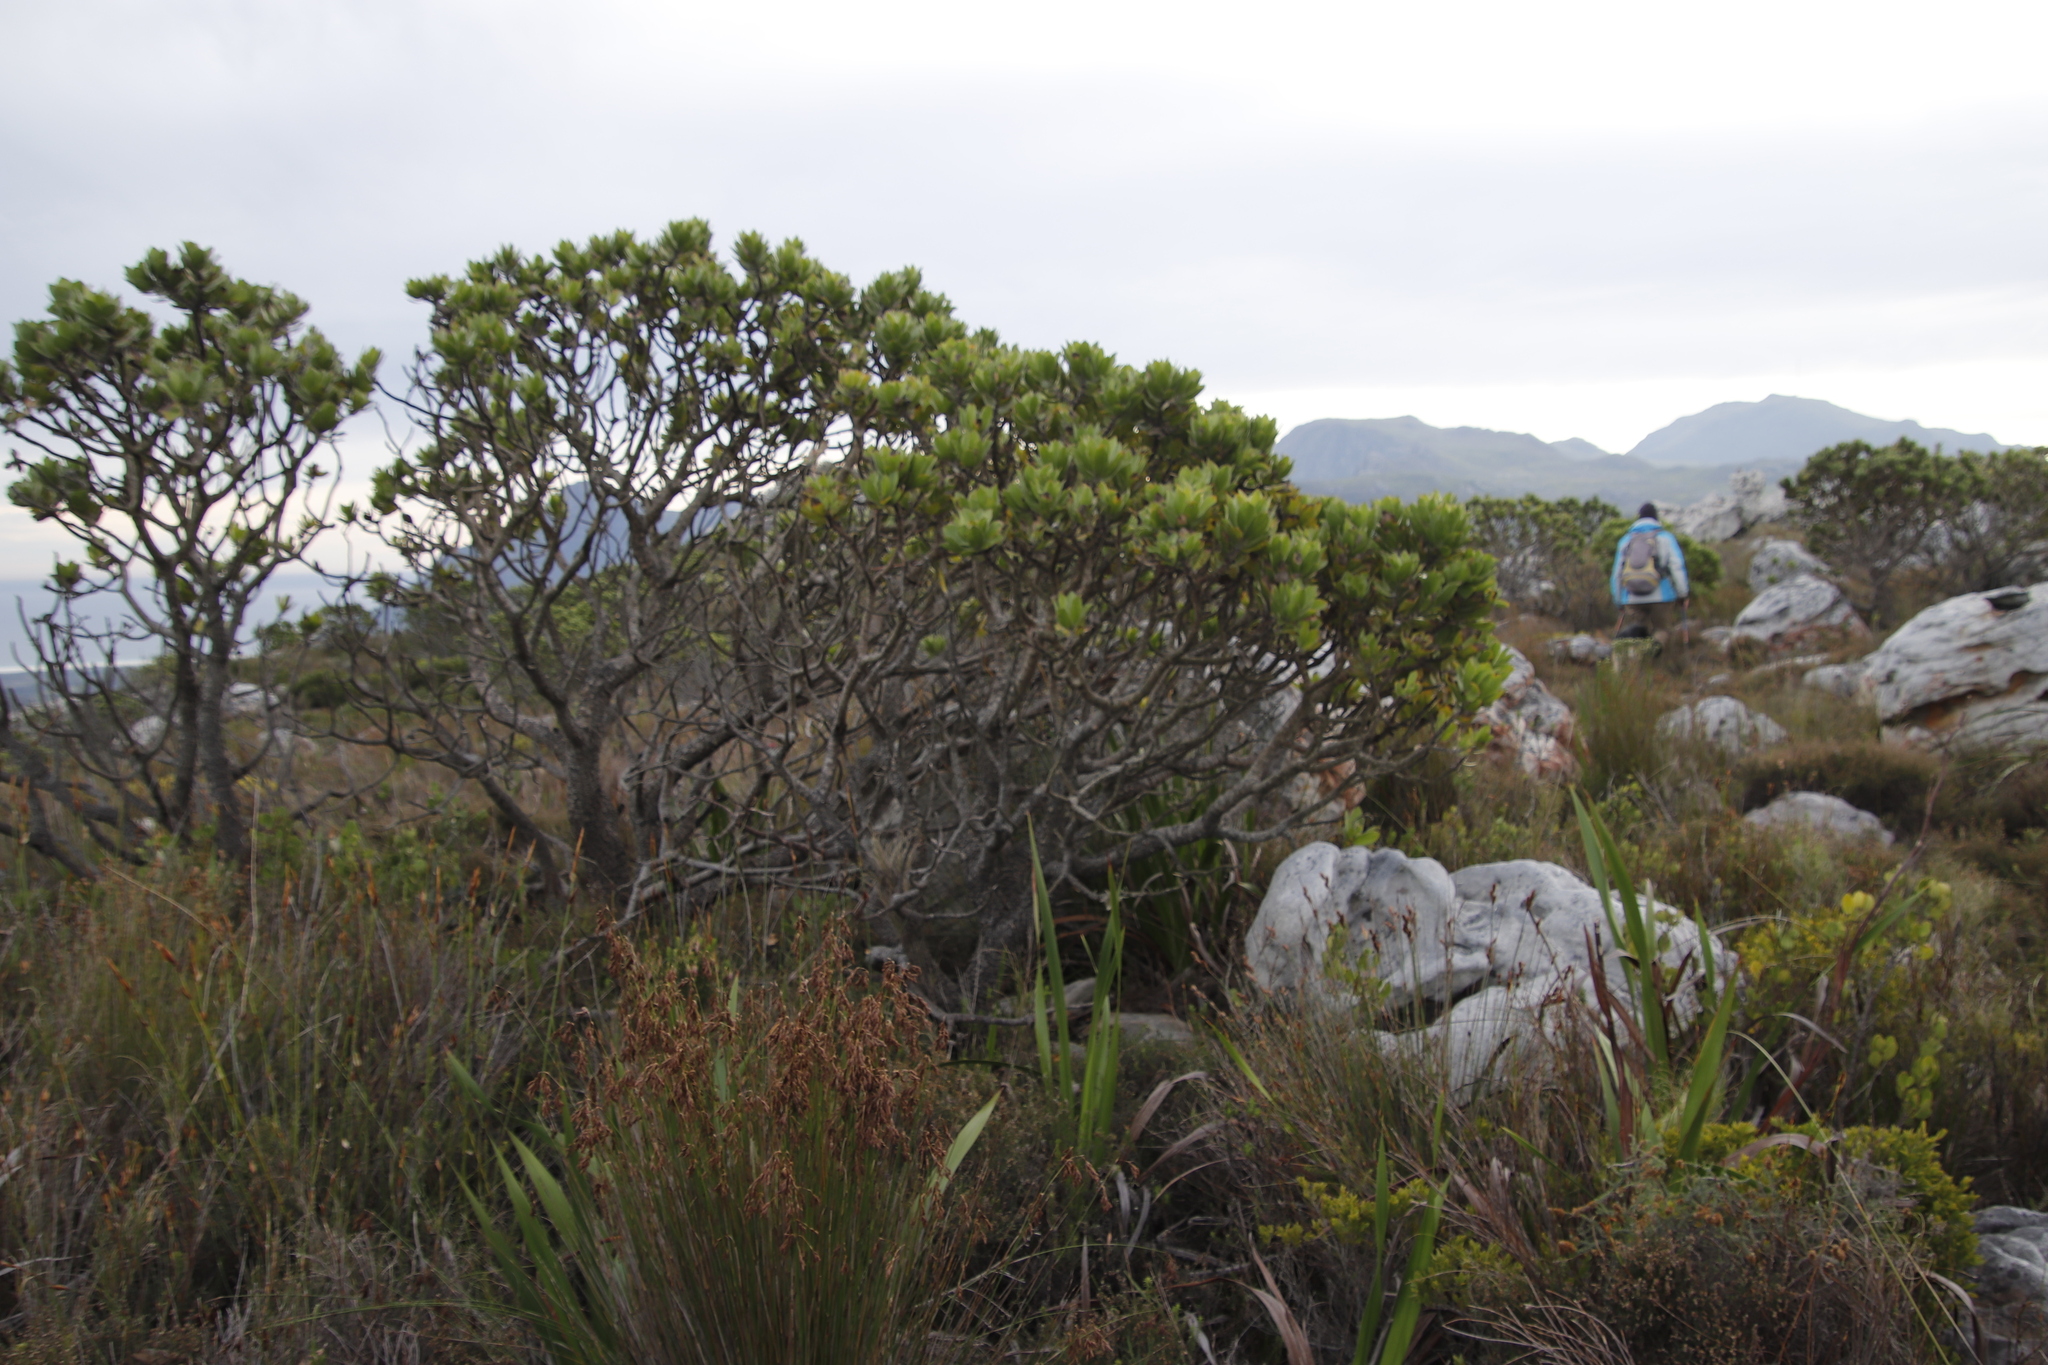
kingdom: Plantae
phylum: Tracheophyta
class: Magnoliopsida
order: Proteales
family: Proteaceae
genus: Leucospermum
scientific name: Leucospermum conocarpodendron
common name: Tree pincushion
